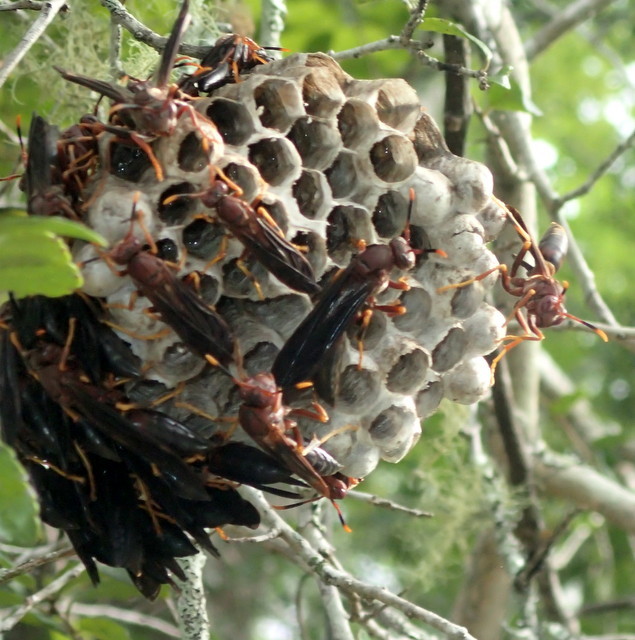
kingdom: Animalia
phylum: Arthropoda
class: Insecta
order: Hymenoptera
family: Eumenidae
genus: Polistes
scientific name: Polistes annularis
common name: Ringed paper wasp
